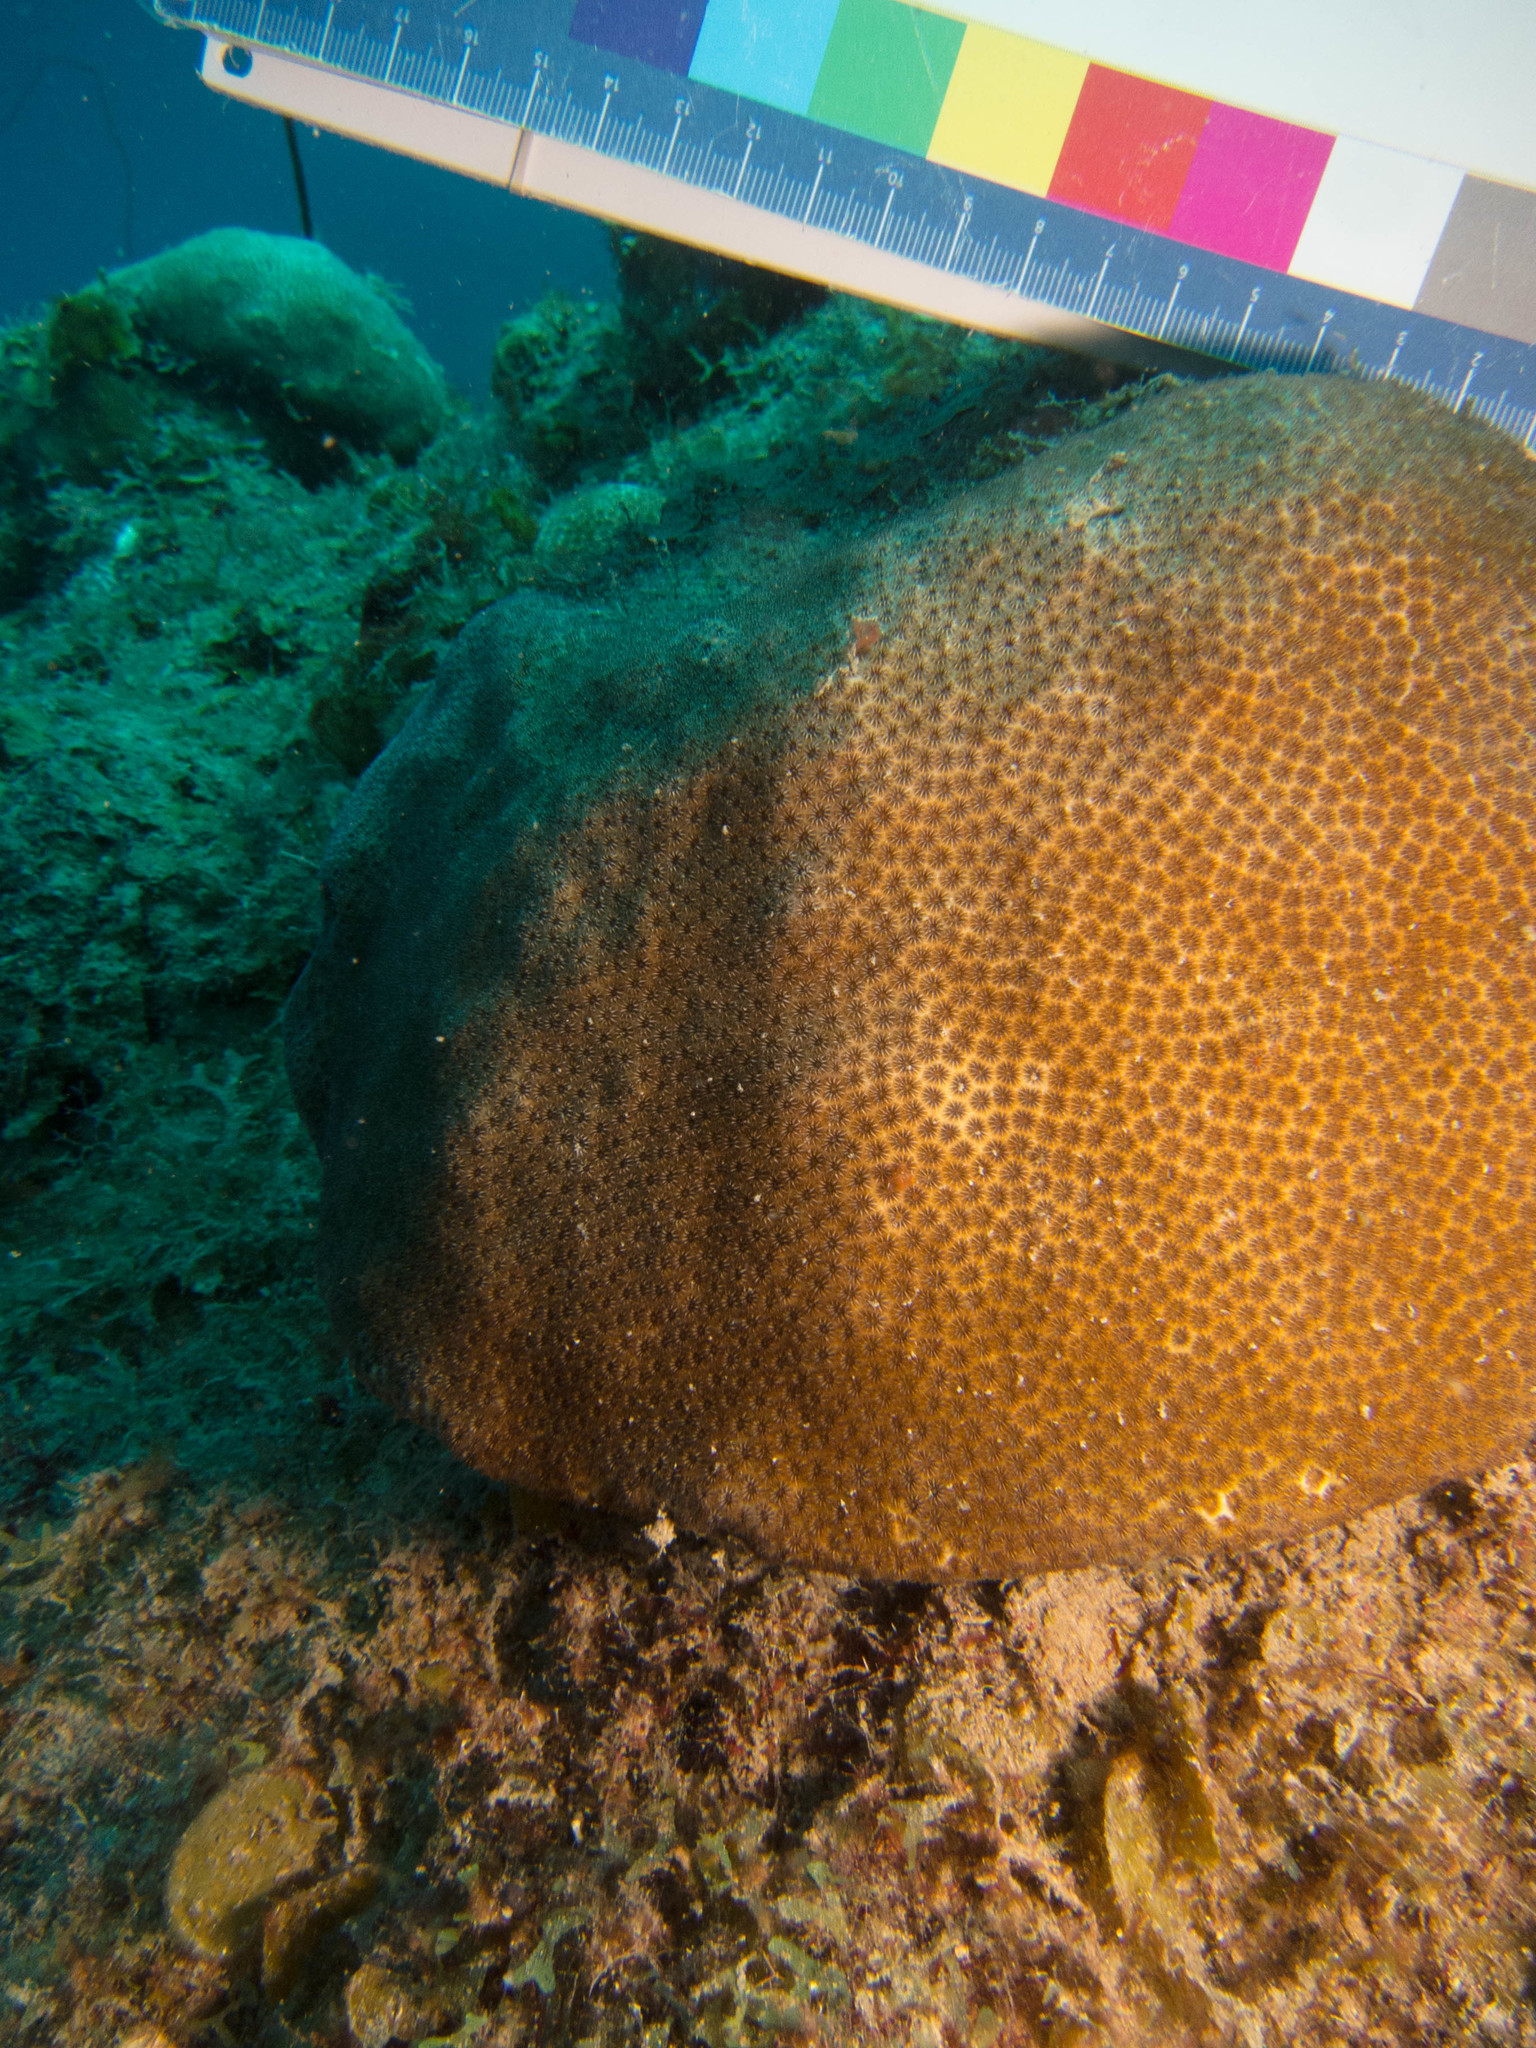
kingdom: Animalia
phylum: Cnidaria
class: Anthozoa
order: Scleractinia
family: Astrocoeniidae
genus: Stephanocoenia
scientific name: Stephanocoenia intersepta
